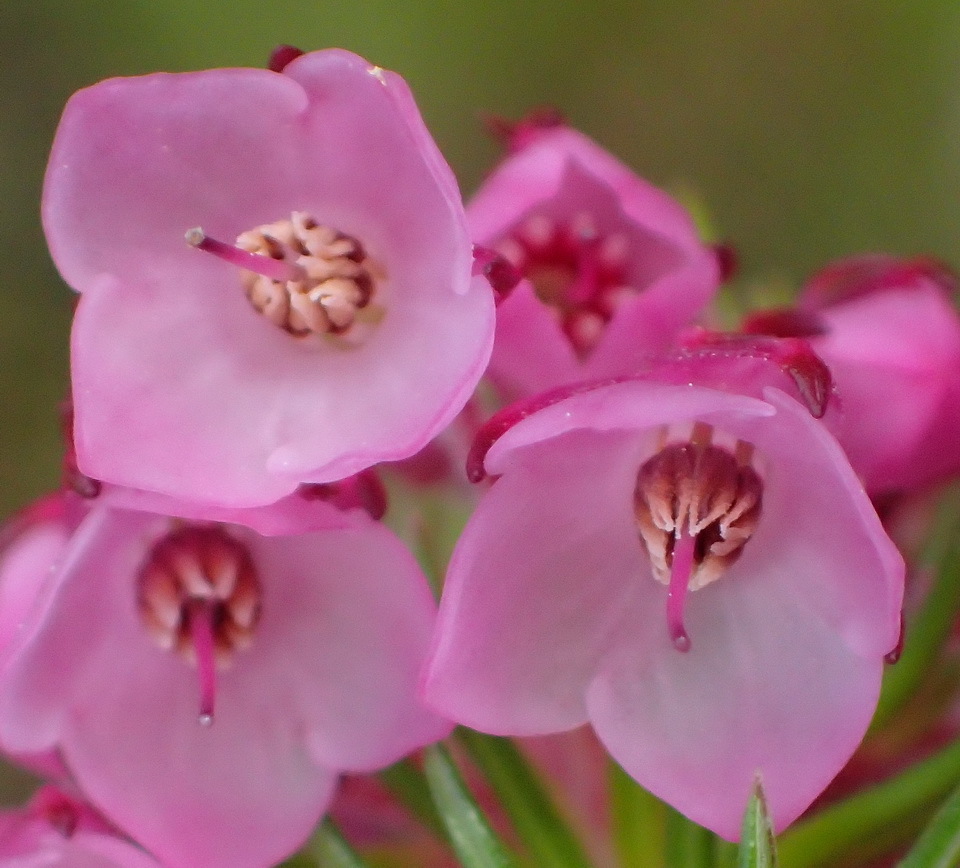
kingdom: Plantae
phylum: Tracheophyta
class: Magnoliopsida
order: Ericales
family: Ericaceae
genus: Erica
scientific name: Erica cubica
